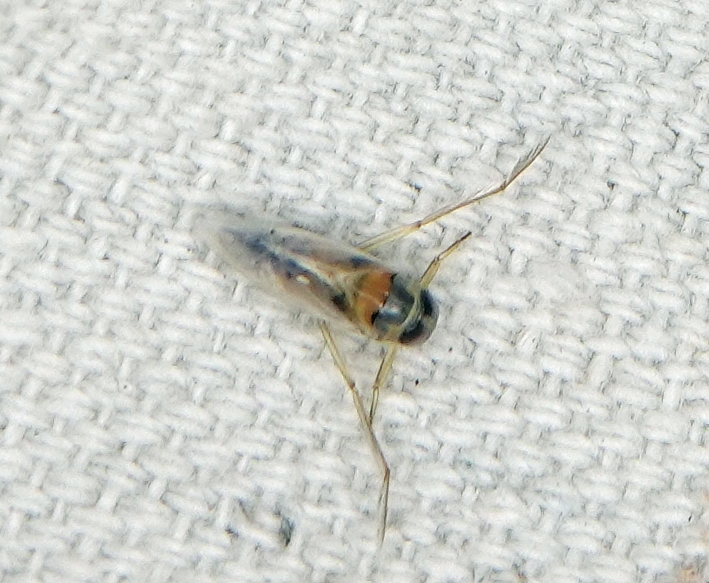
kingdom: Animalia
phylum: Arthropoda
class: Insecta
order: Hemiptera
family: Notonectidae
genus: Buenoa
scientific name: Buenoa
